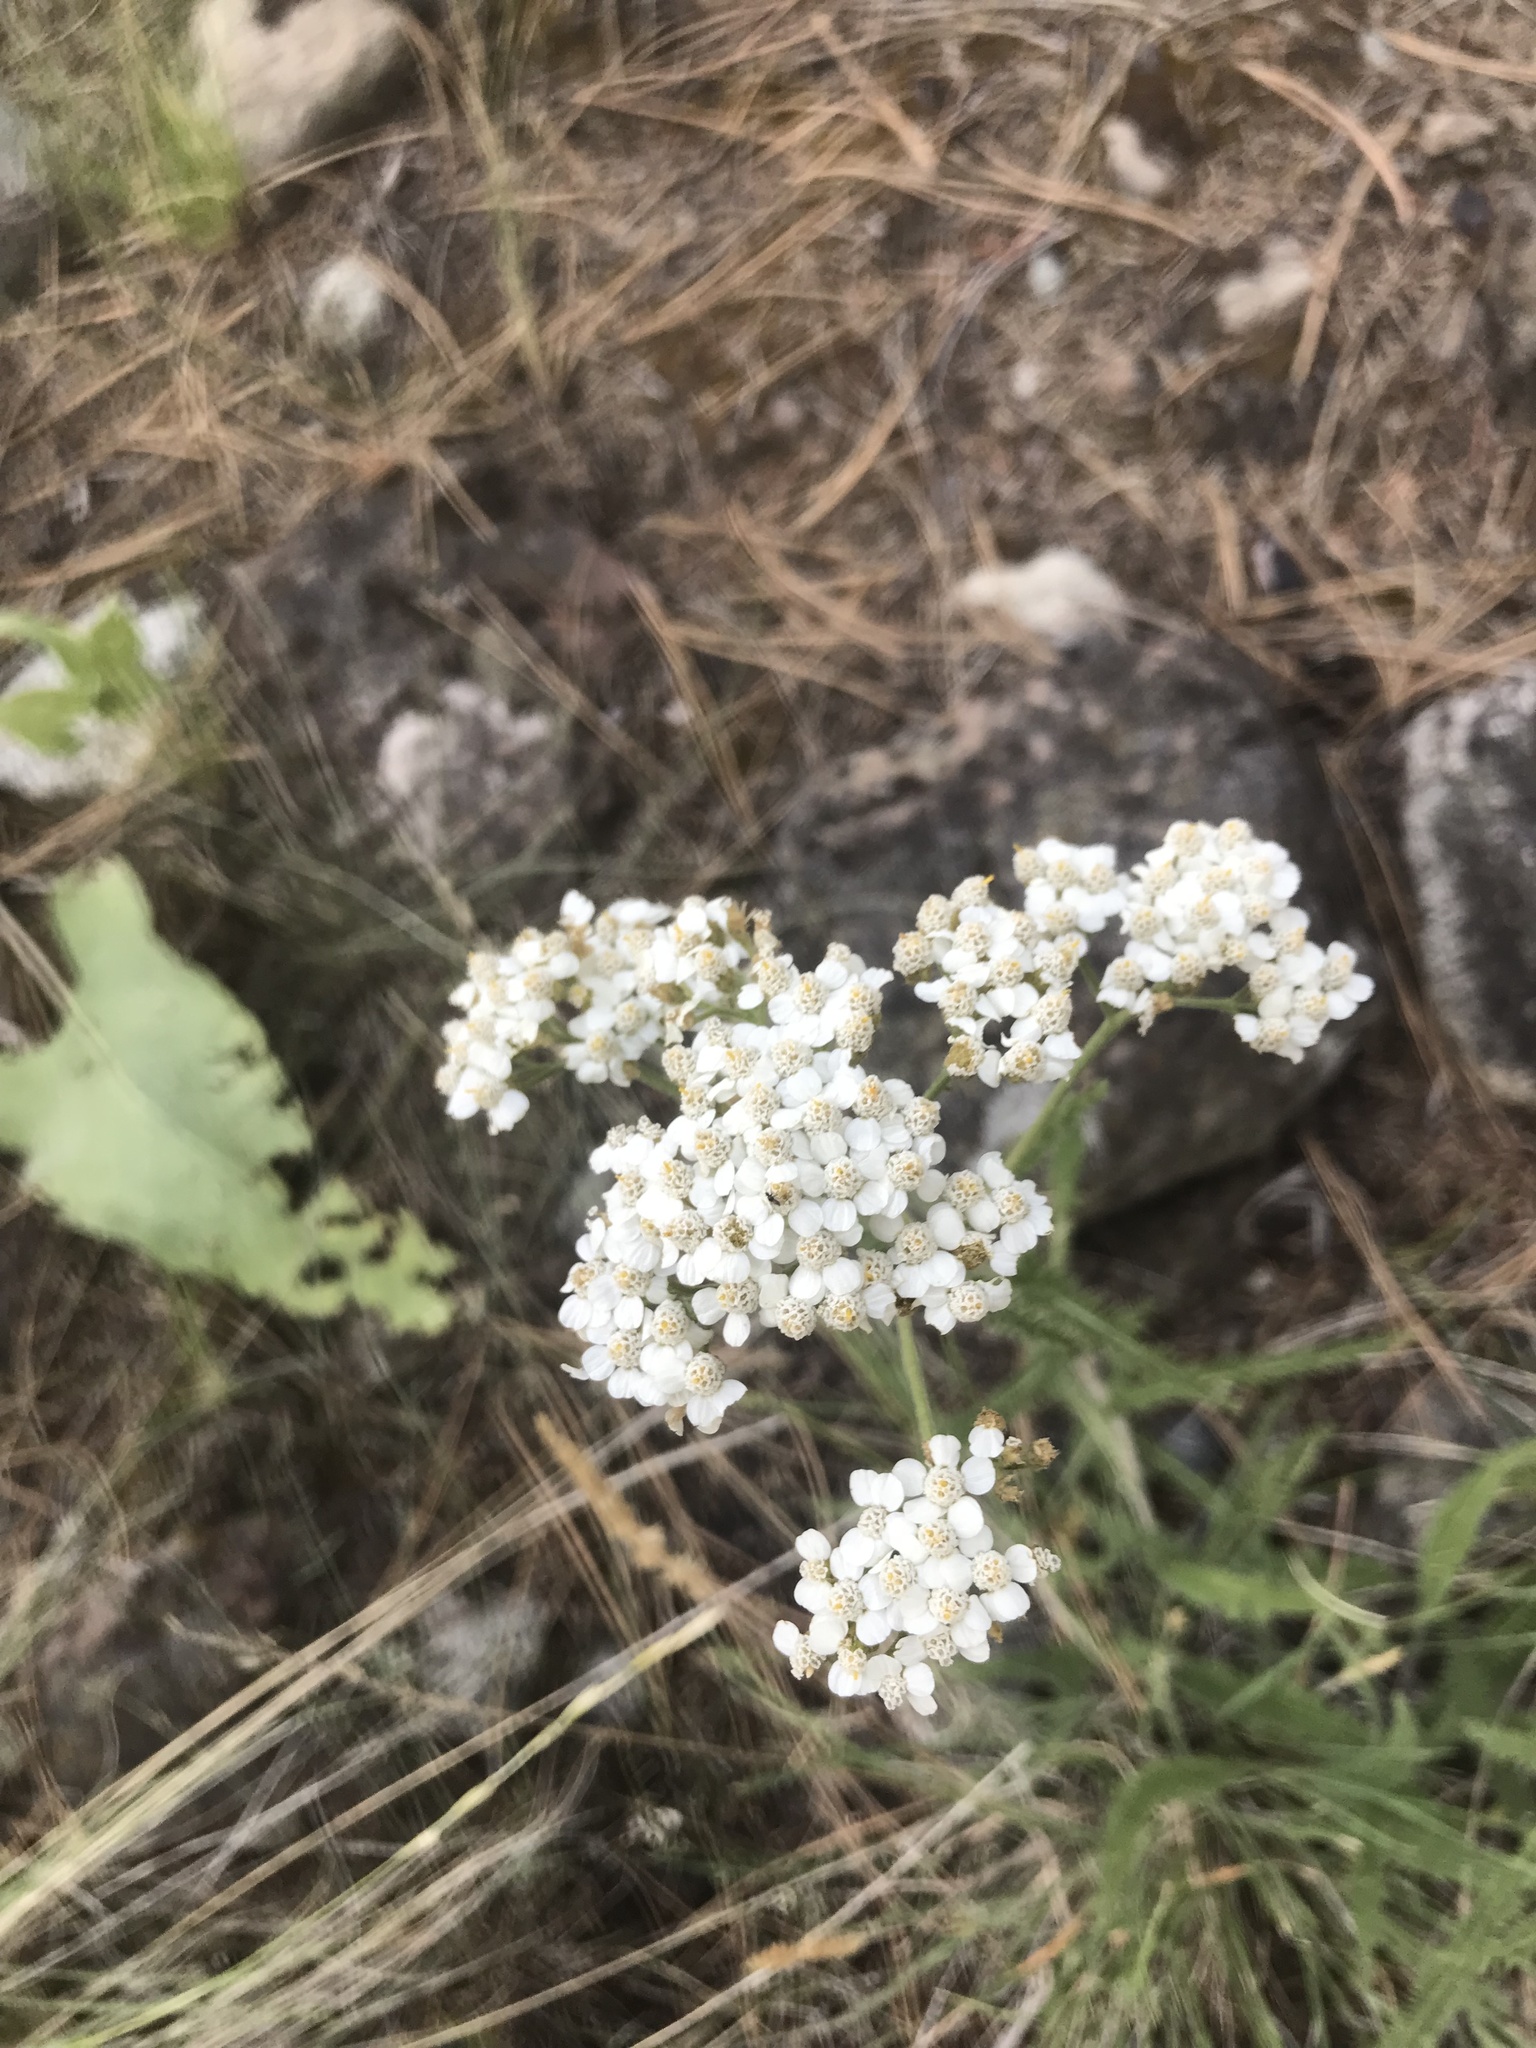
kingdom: Plantae
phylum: Tracheophyta
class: Magnoliopsida
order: Asterales
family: Asteraceae
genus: Achillea
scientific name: Achillea millefolium
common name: Yarrow
